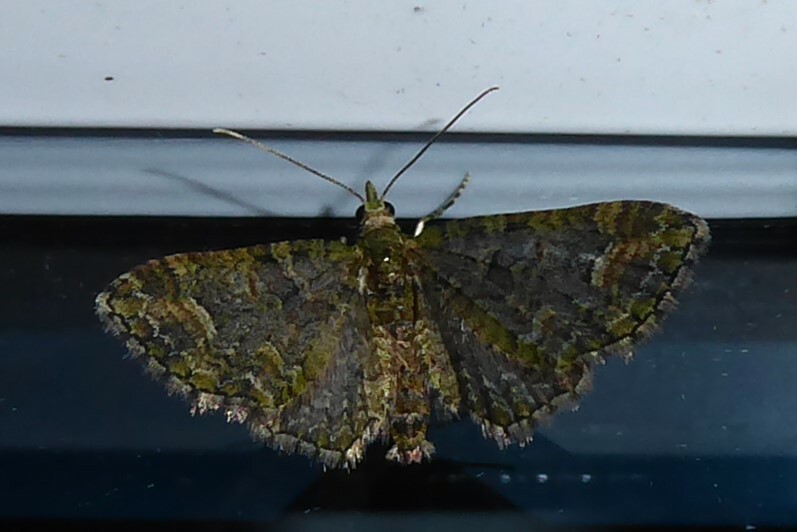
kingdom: Animalia
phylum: Arthropoda
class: Insecta
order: Lepidoptera
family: Geometridae
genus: Idaea
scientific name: Idaea mutanda
